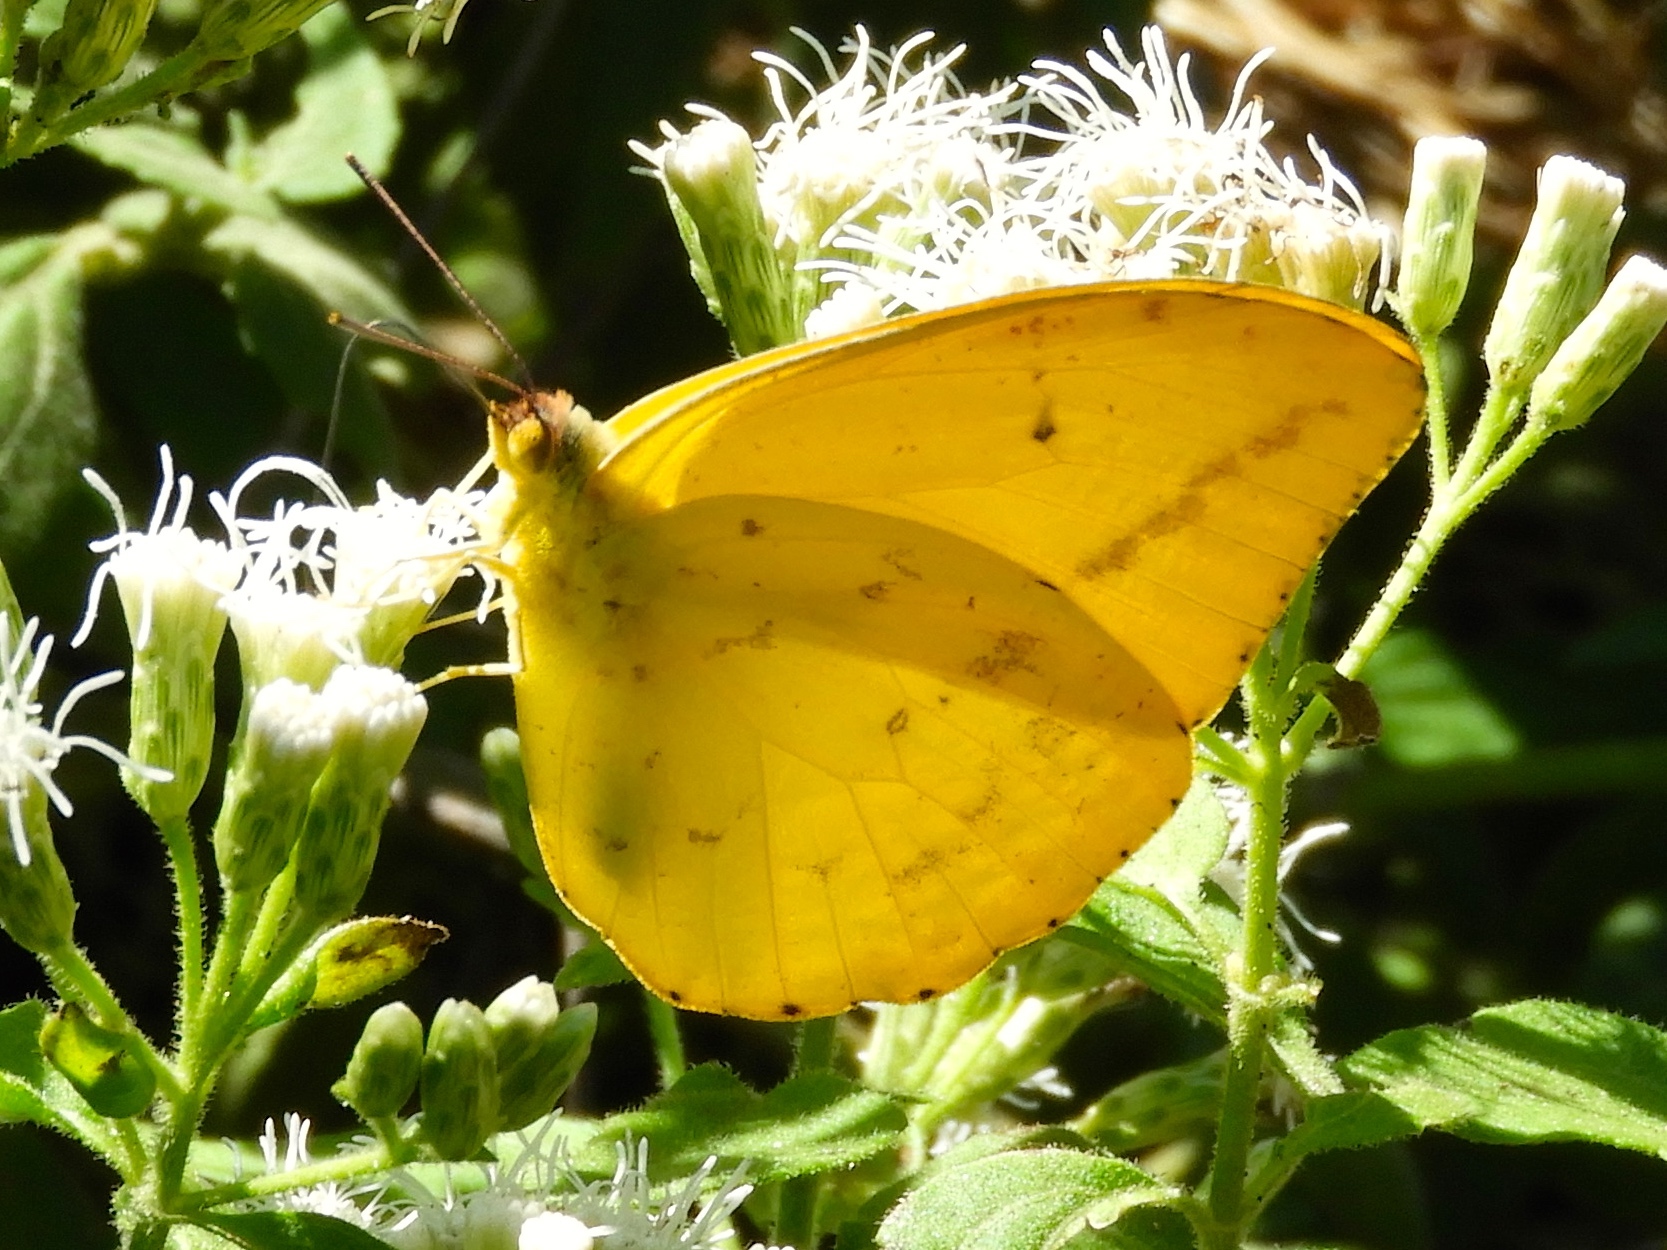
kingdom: Animalia
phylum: Arthropoda
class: Insecta
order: Lepidoptera
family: Pieridae
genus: Phoebis
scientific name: Phoebis agarithe
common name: Large orange sulphur
